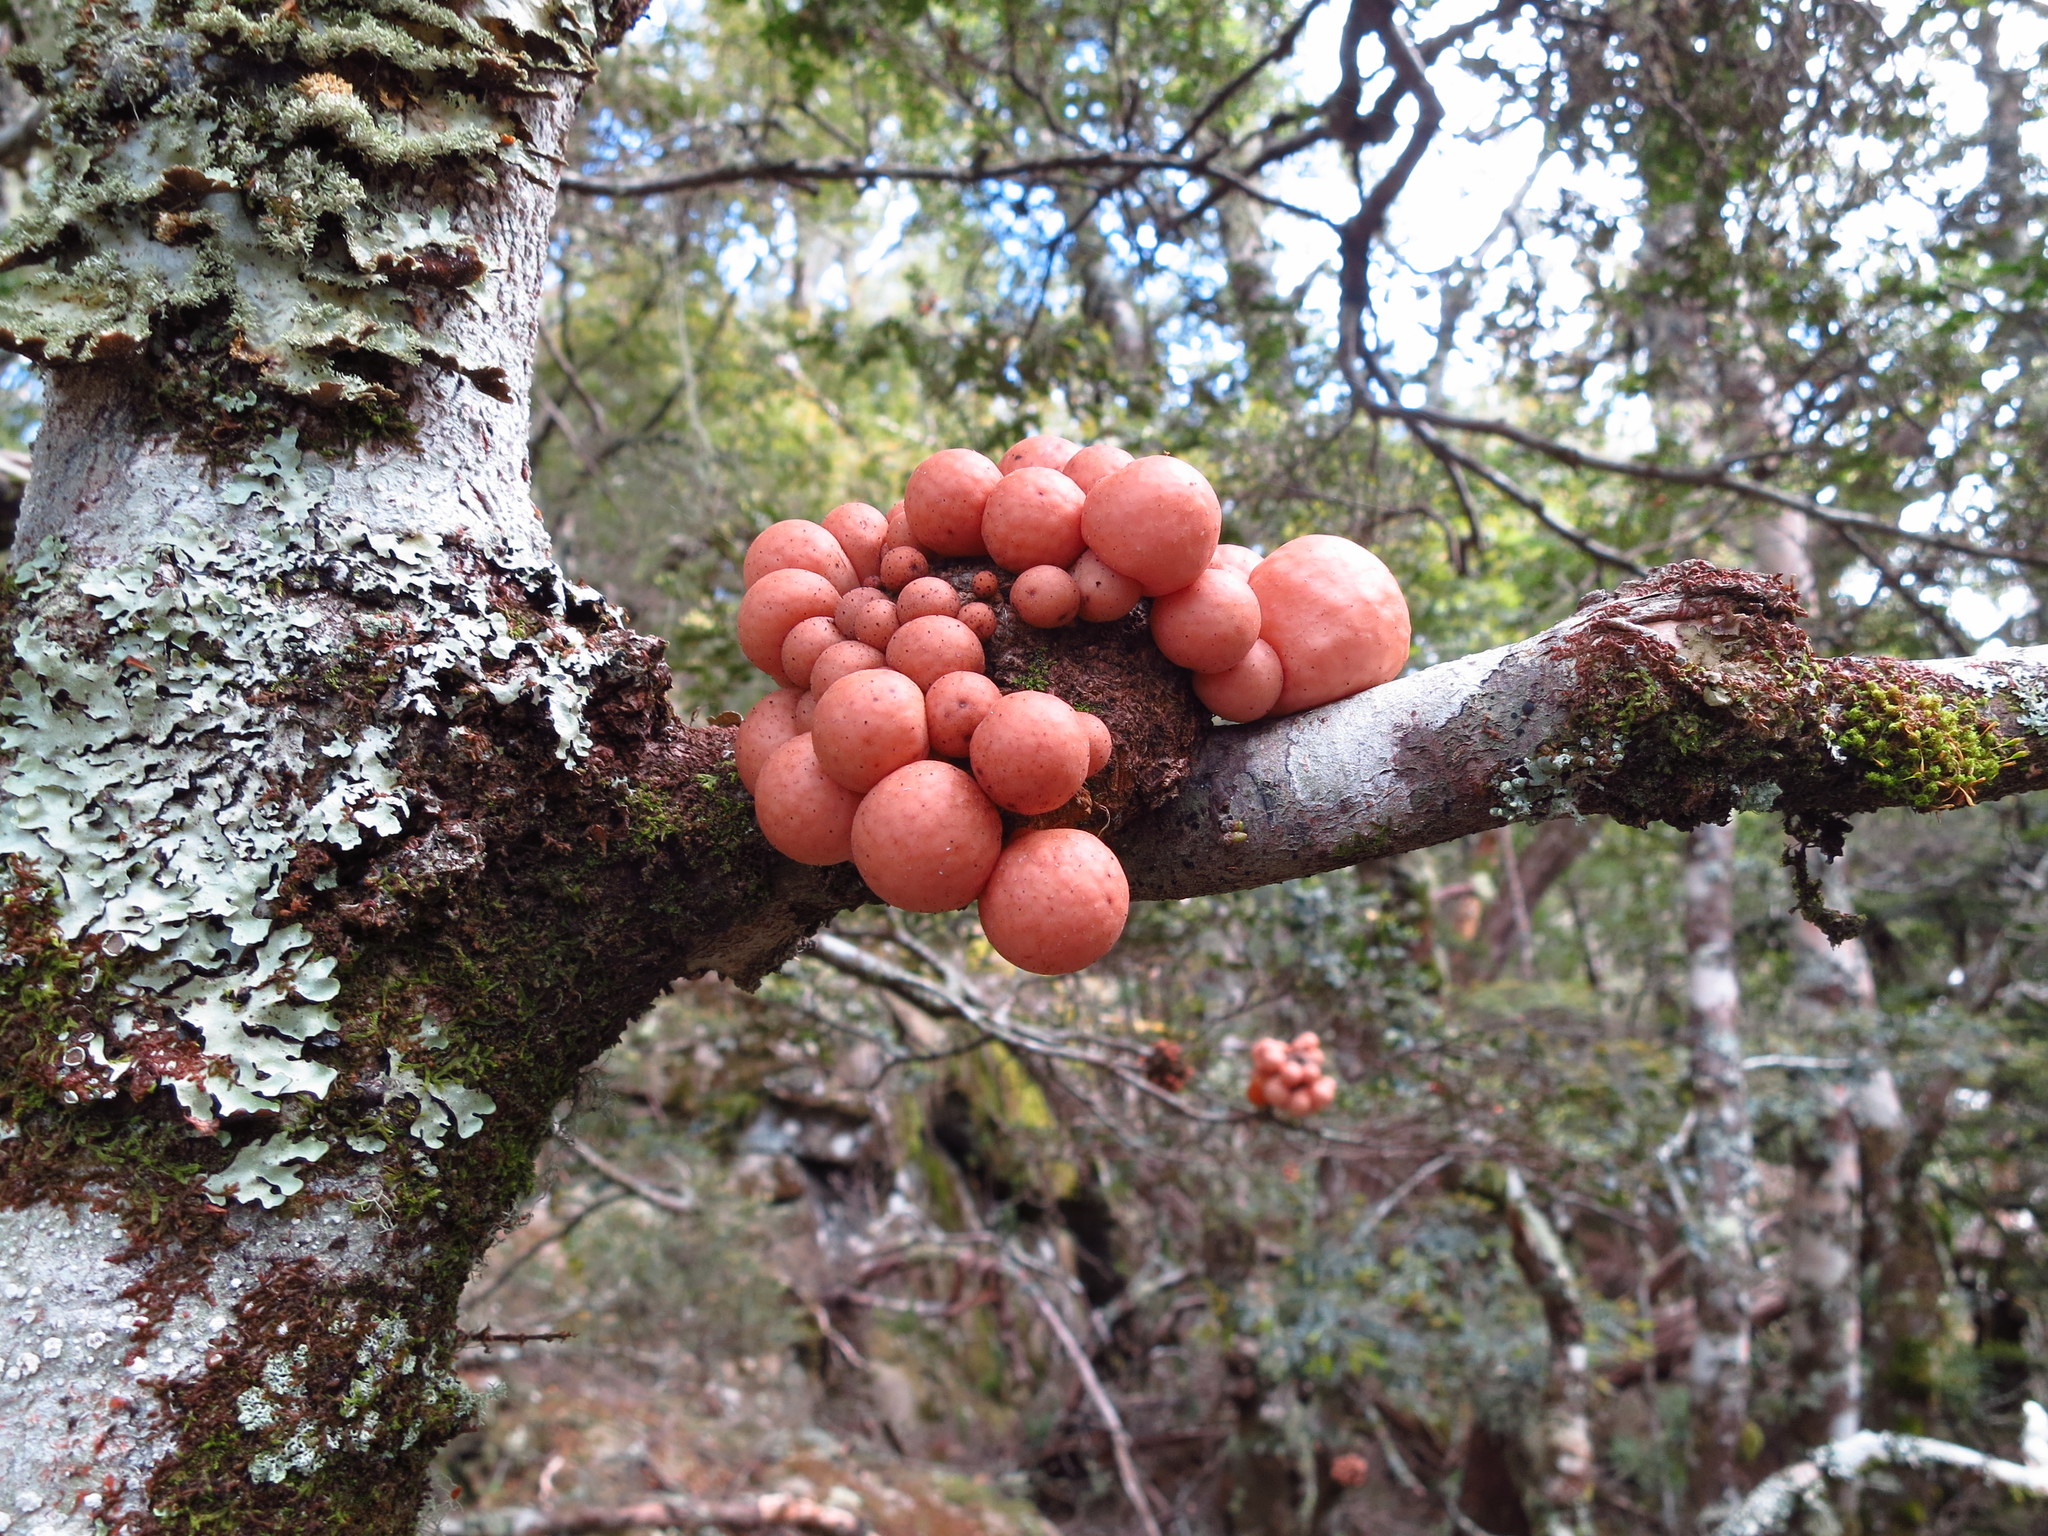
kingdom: Fungi
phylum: Ascomycota
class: Leotiomycetes
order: Cyttariales
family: Cyttariaceae
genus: Cyttaria
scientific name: Cyttaria gunnii
